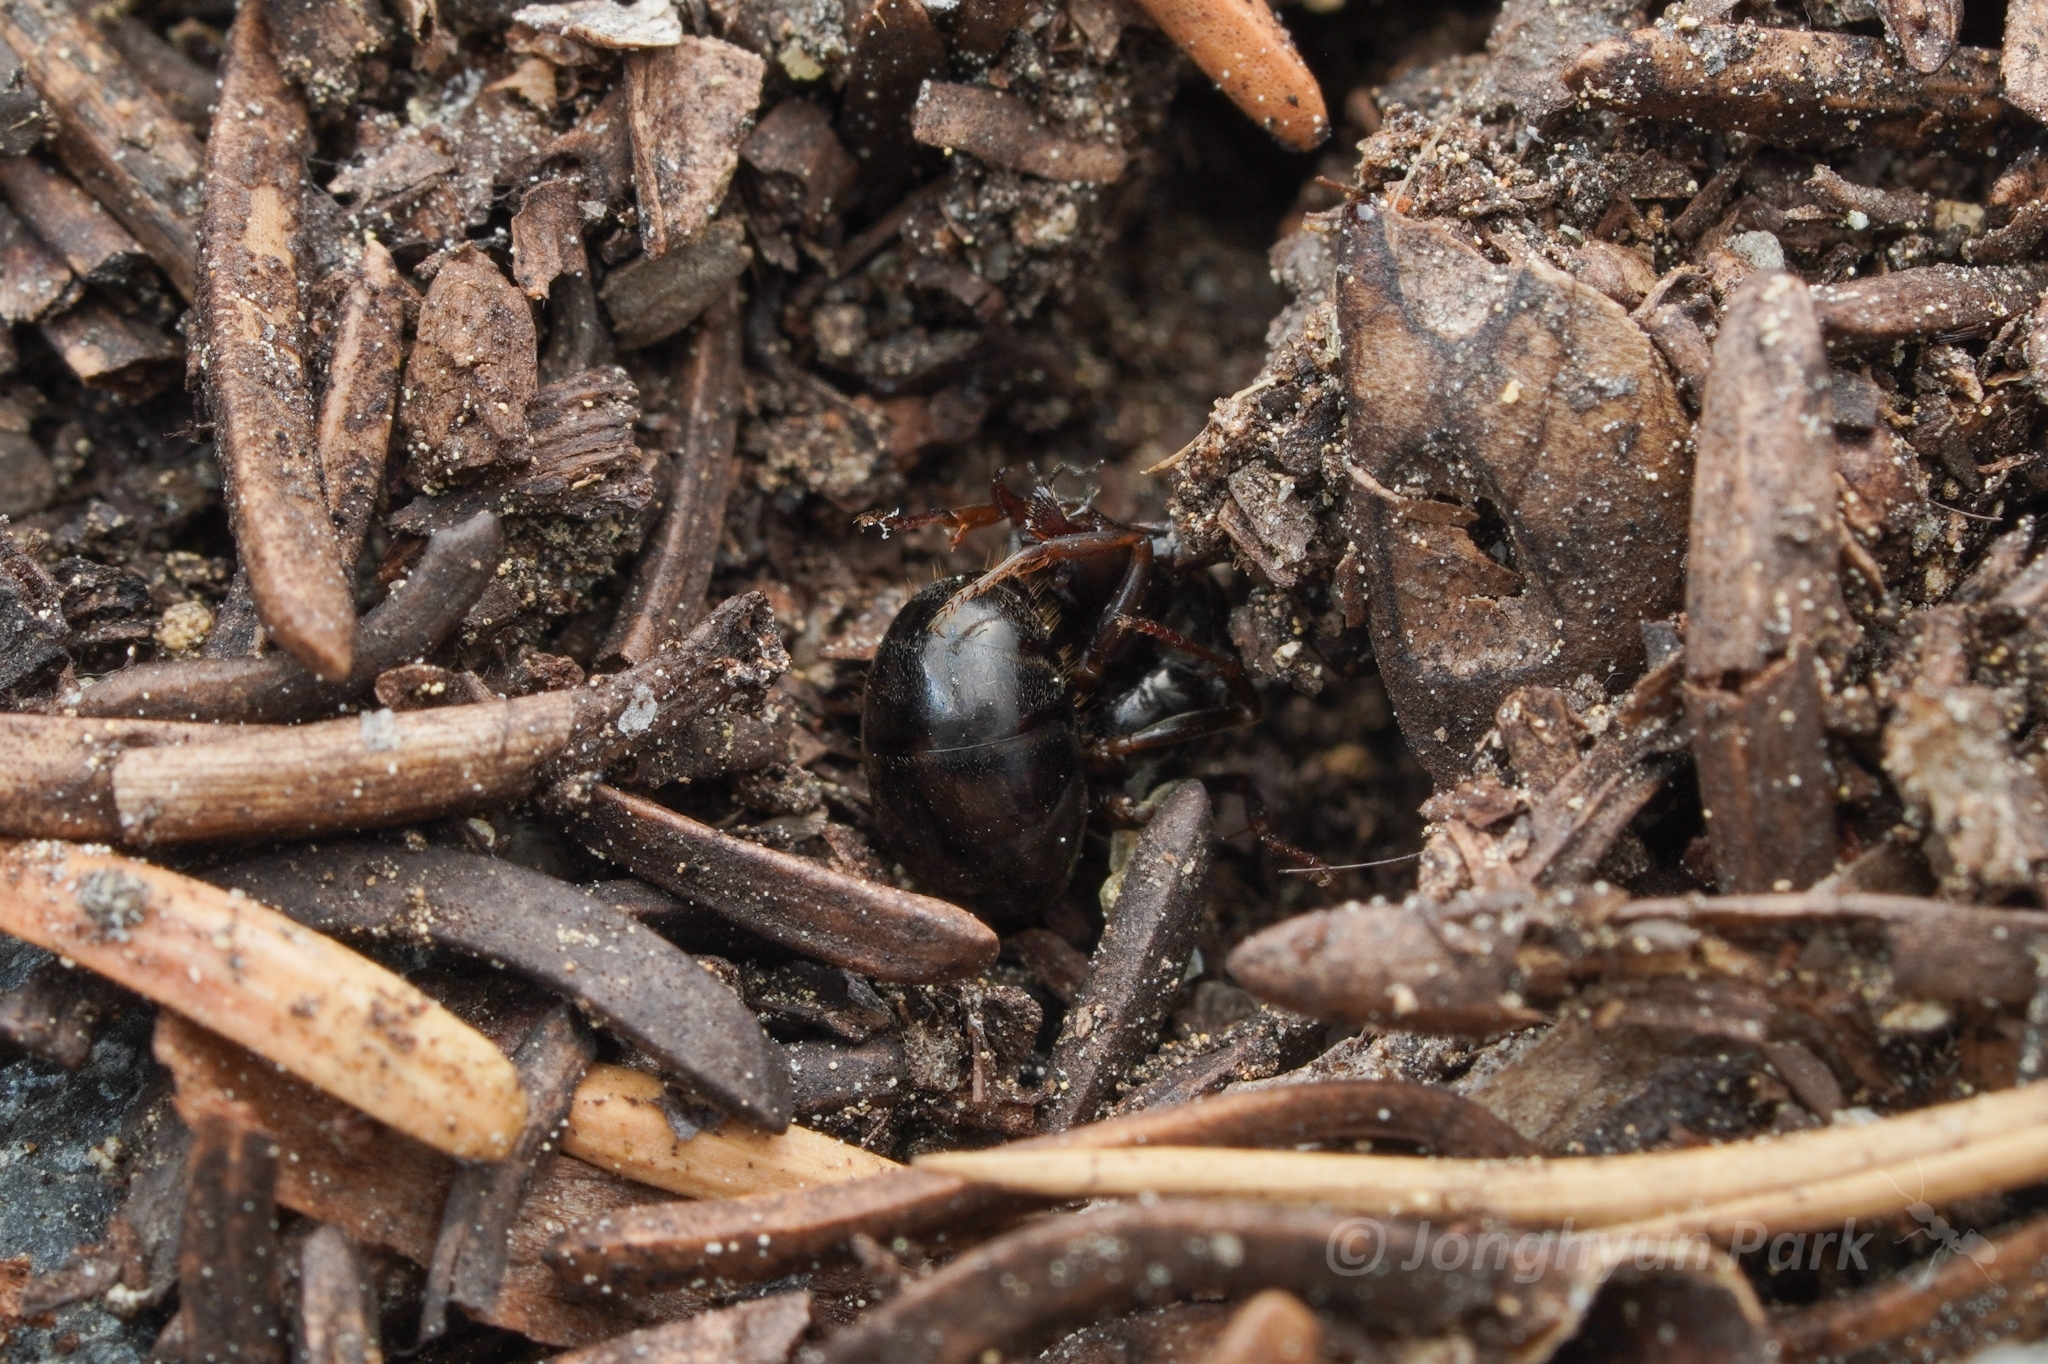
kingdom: Animalia
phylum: Arthropoda
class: Insecta
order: Hymenoptera
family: Formicidae
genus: Formica
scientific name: Formica aserva
